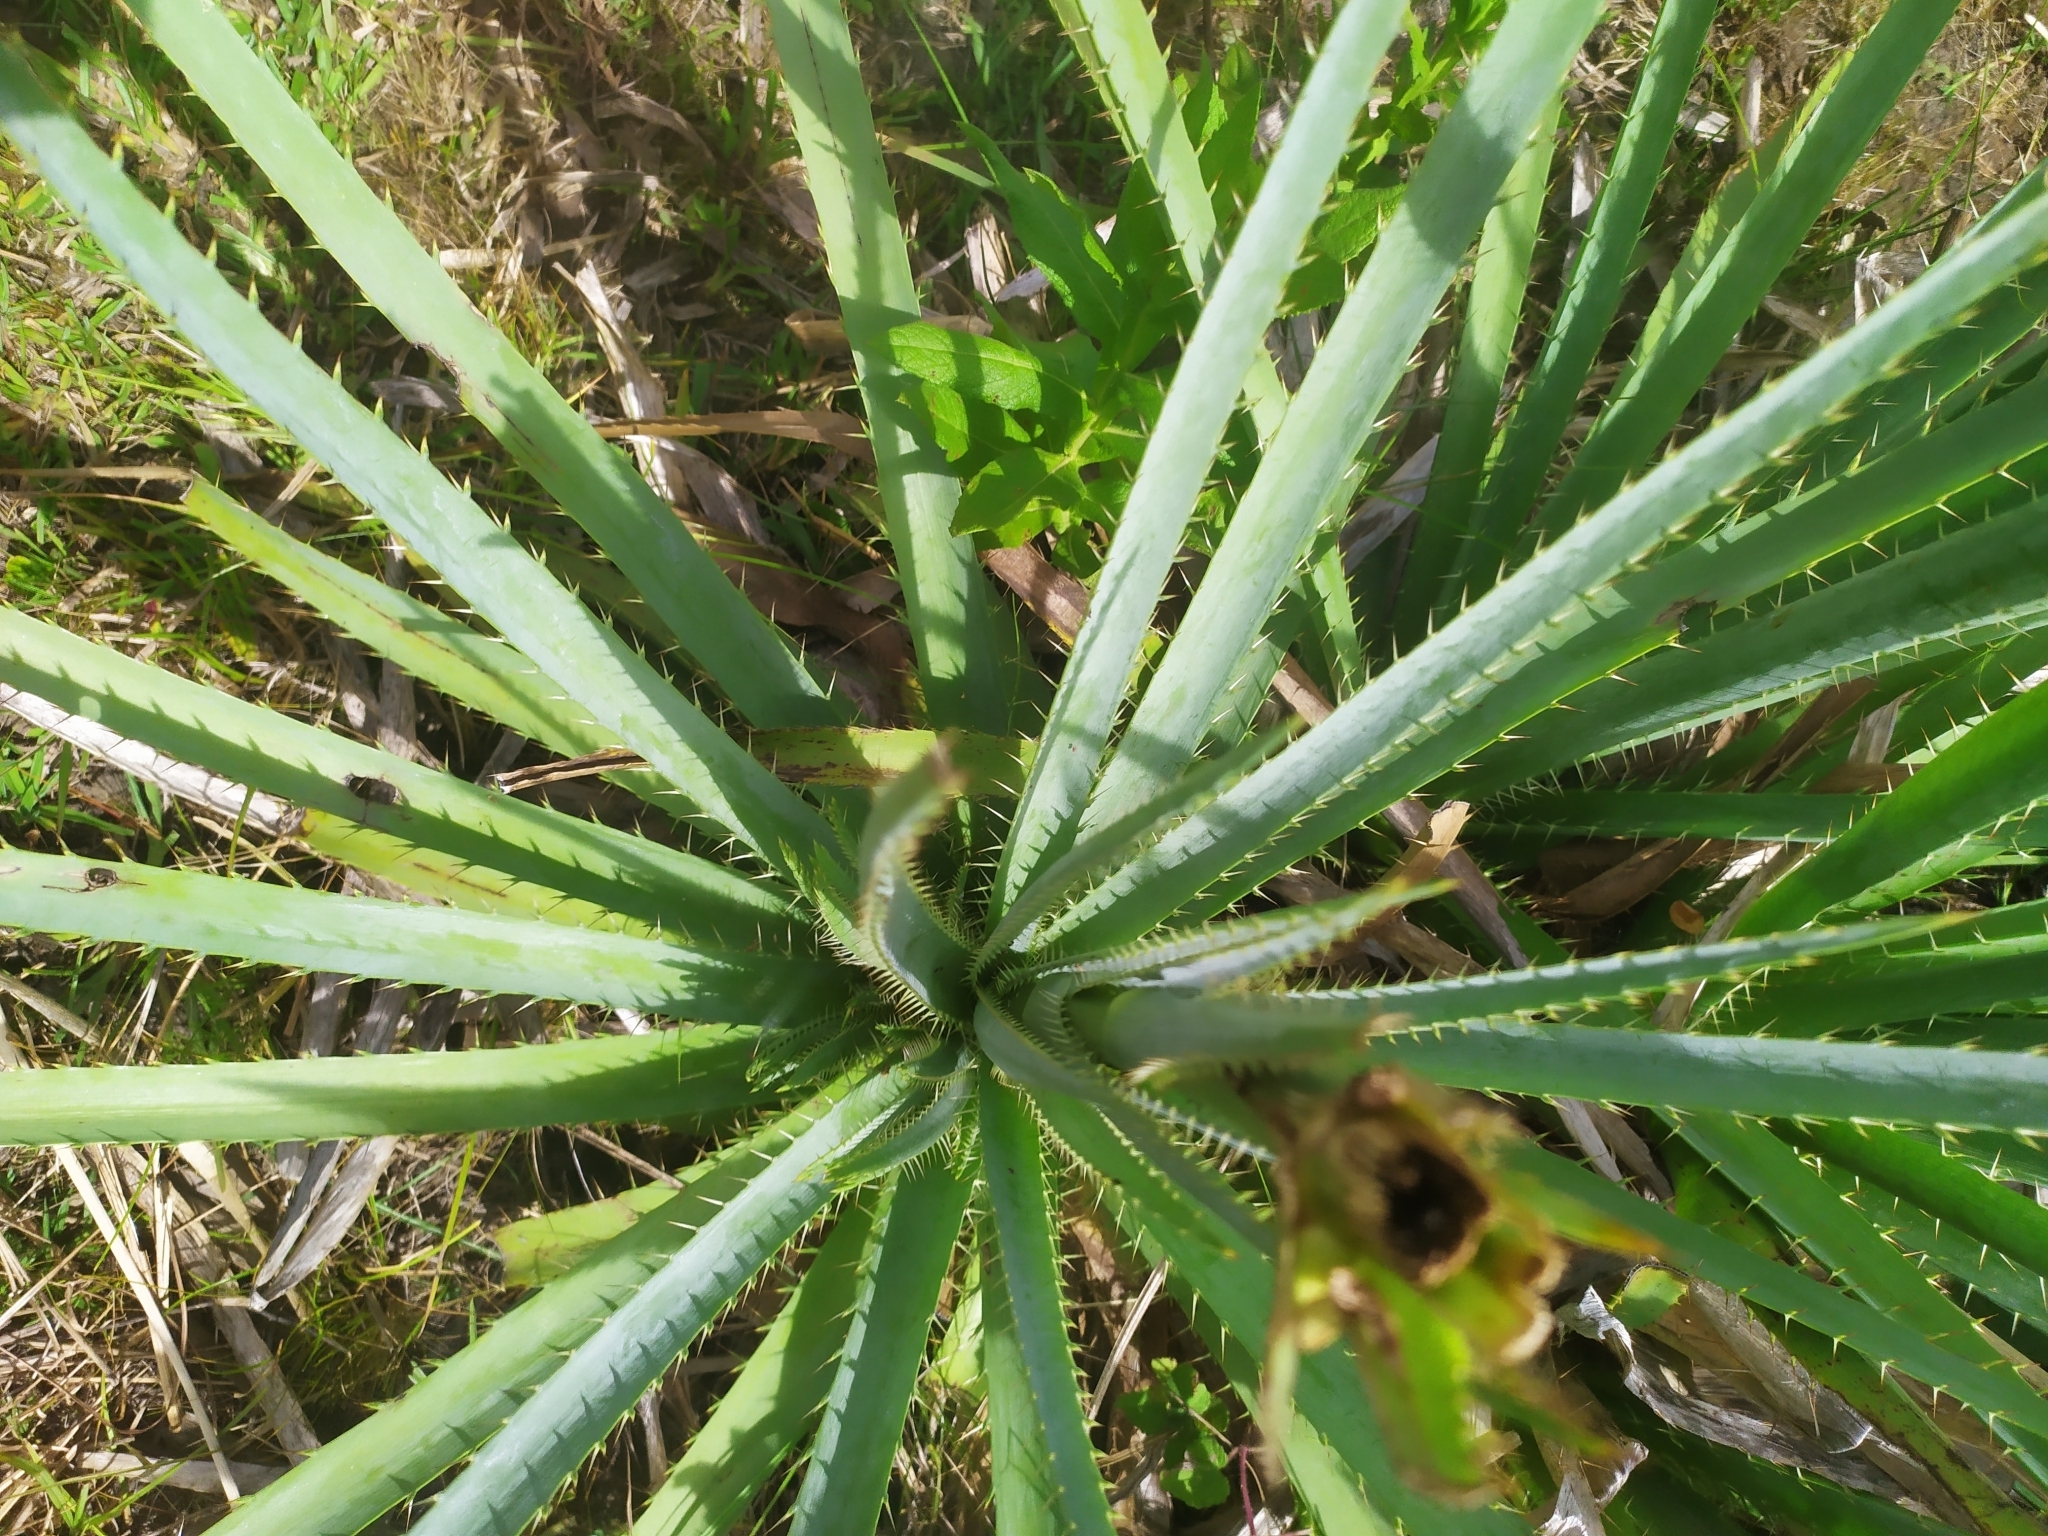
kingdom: Plantae
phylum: Tracheophyta
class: Magnoliopsida
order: Apiales
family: Apiaceae
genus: Eryngium
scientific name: Eryngium pandanifolium
